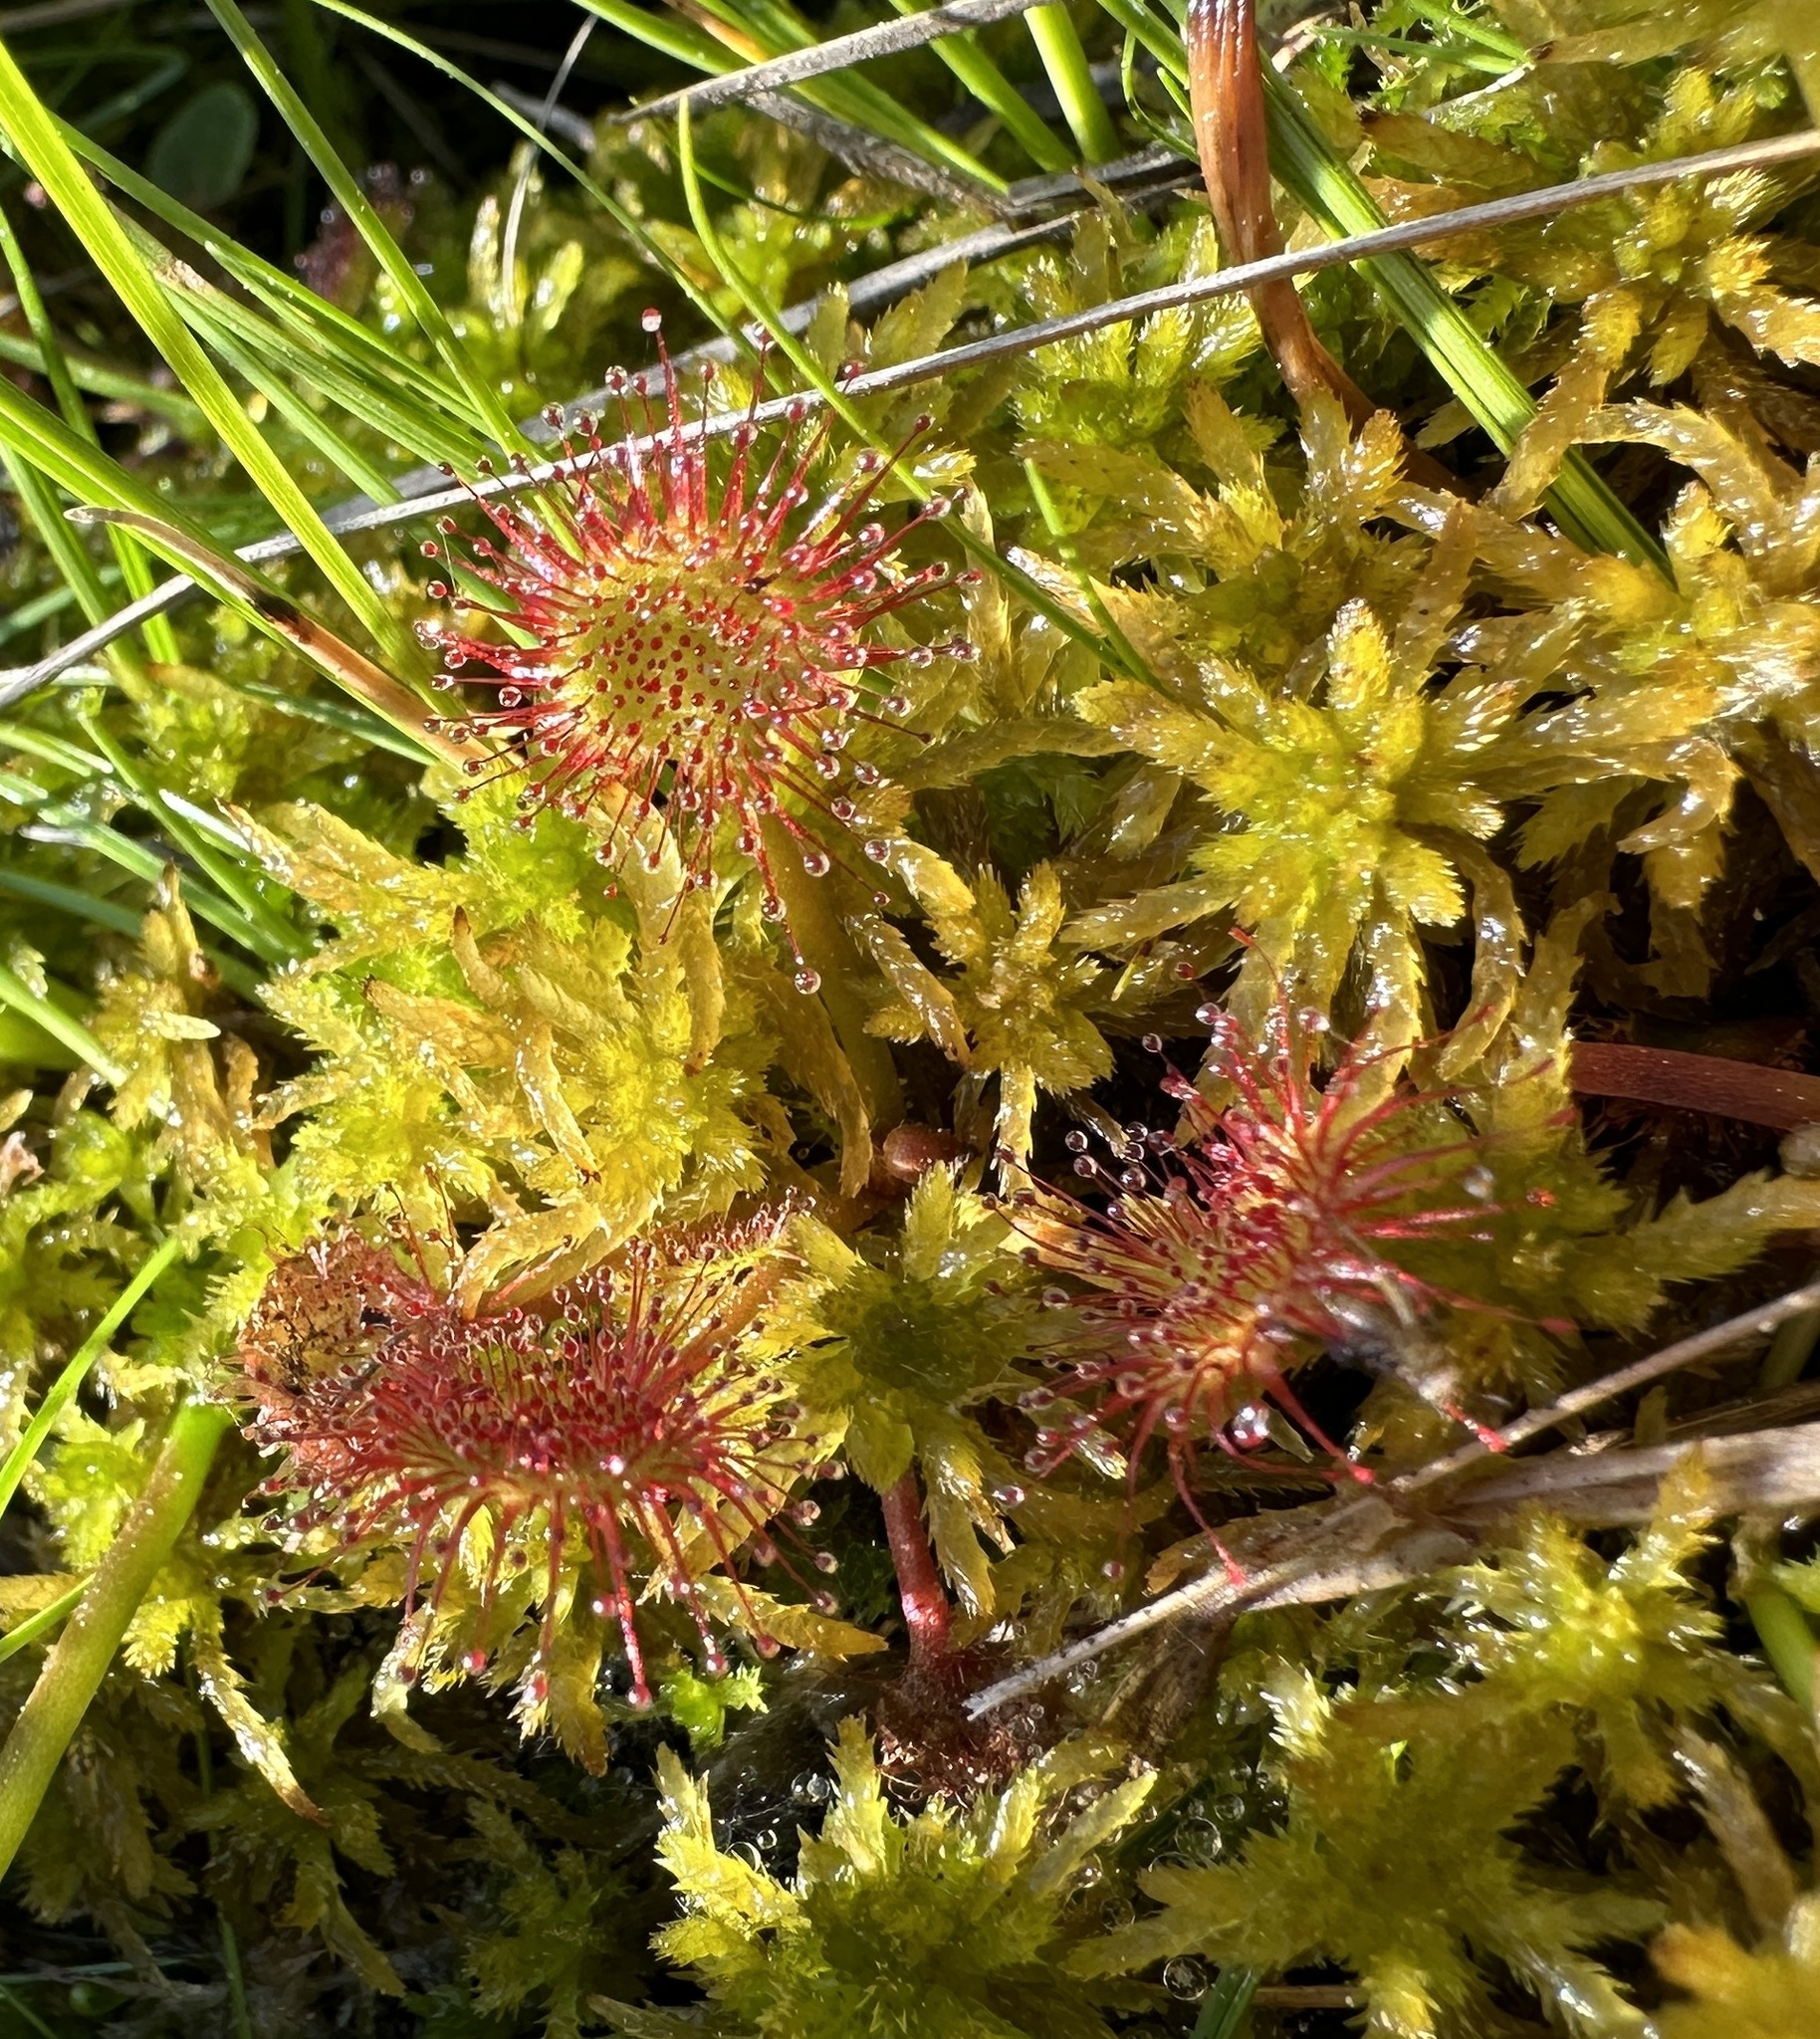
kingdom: Plantae
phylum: Tracheophyta
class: Magnoliopsida
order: Caryophyllales
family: Droseraceae
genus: Drosera
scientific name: Drosera rotundifolia
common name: Round-leaved sundew
